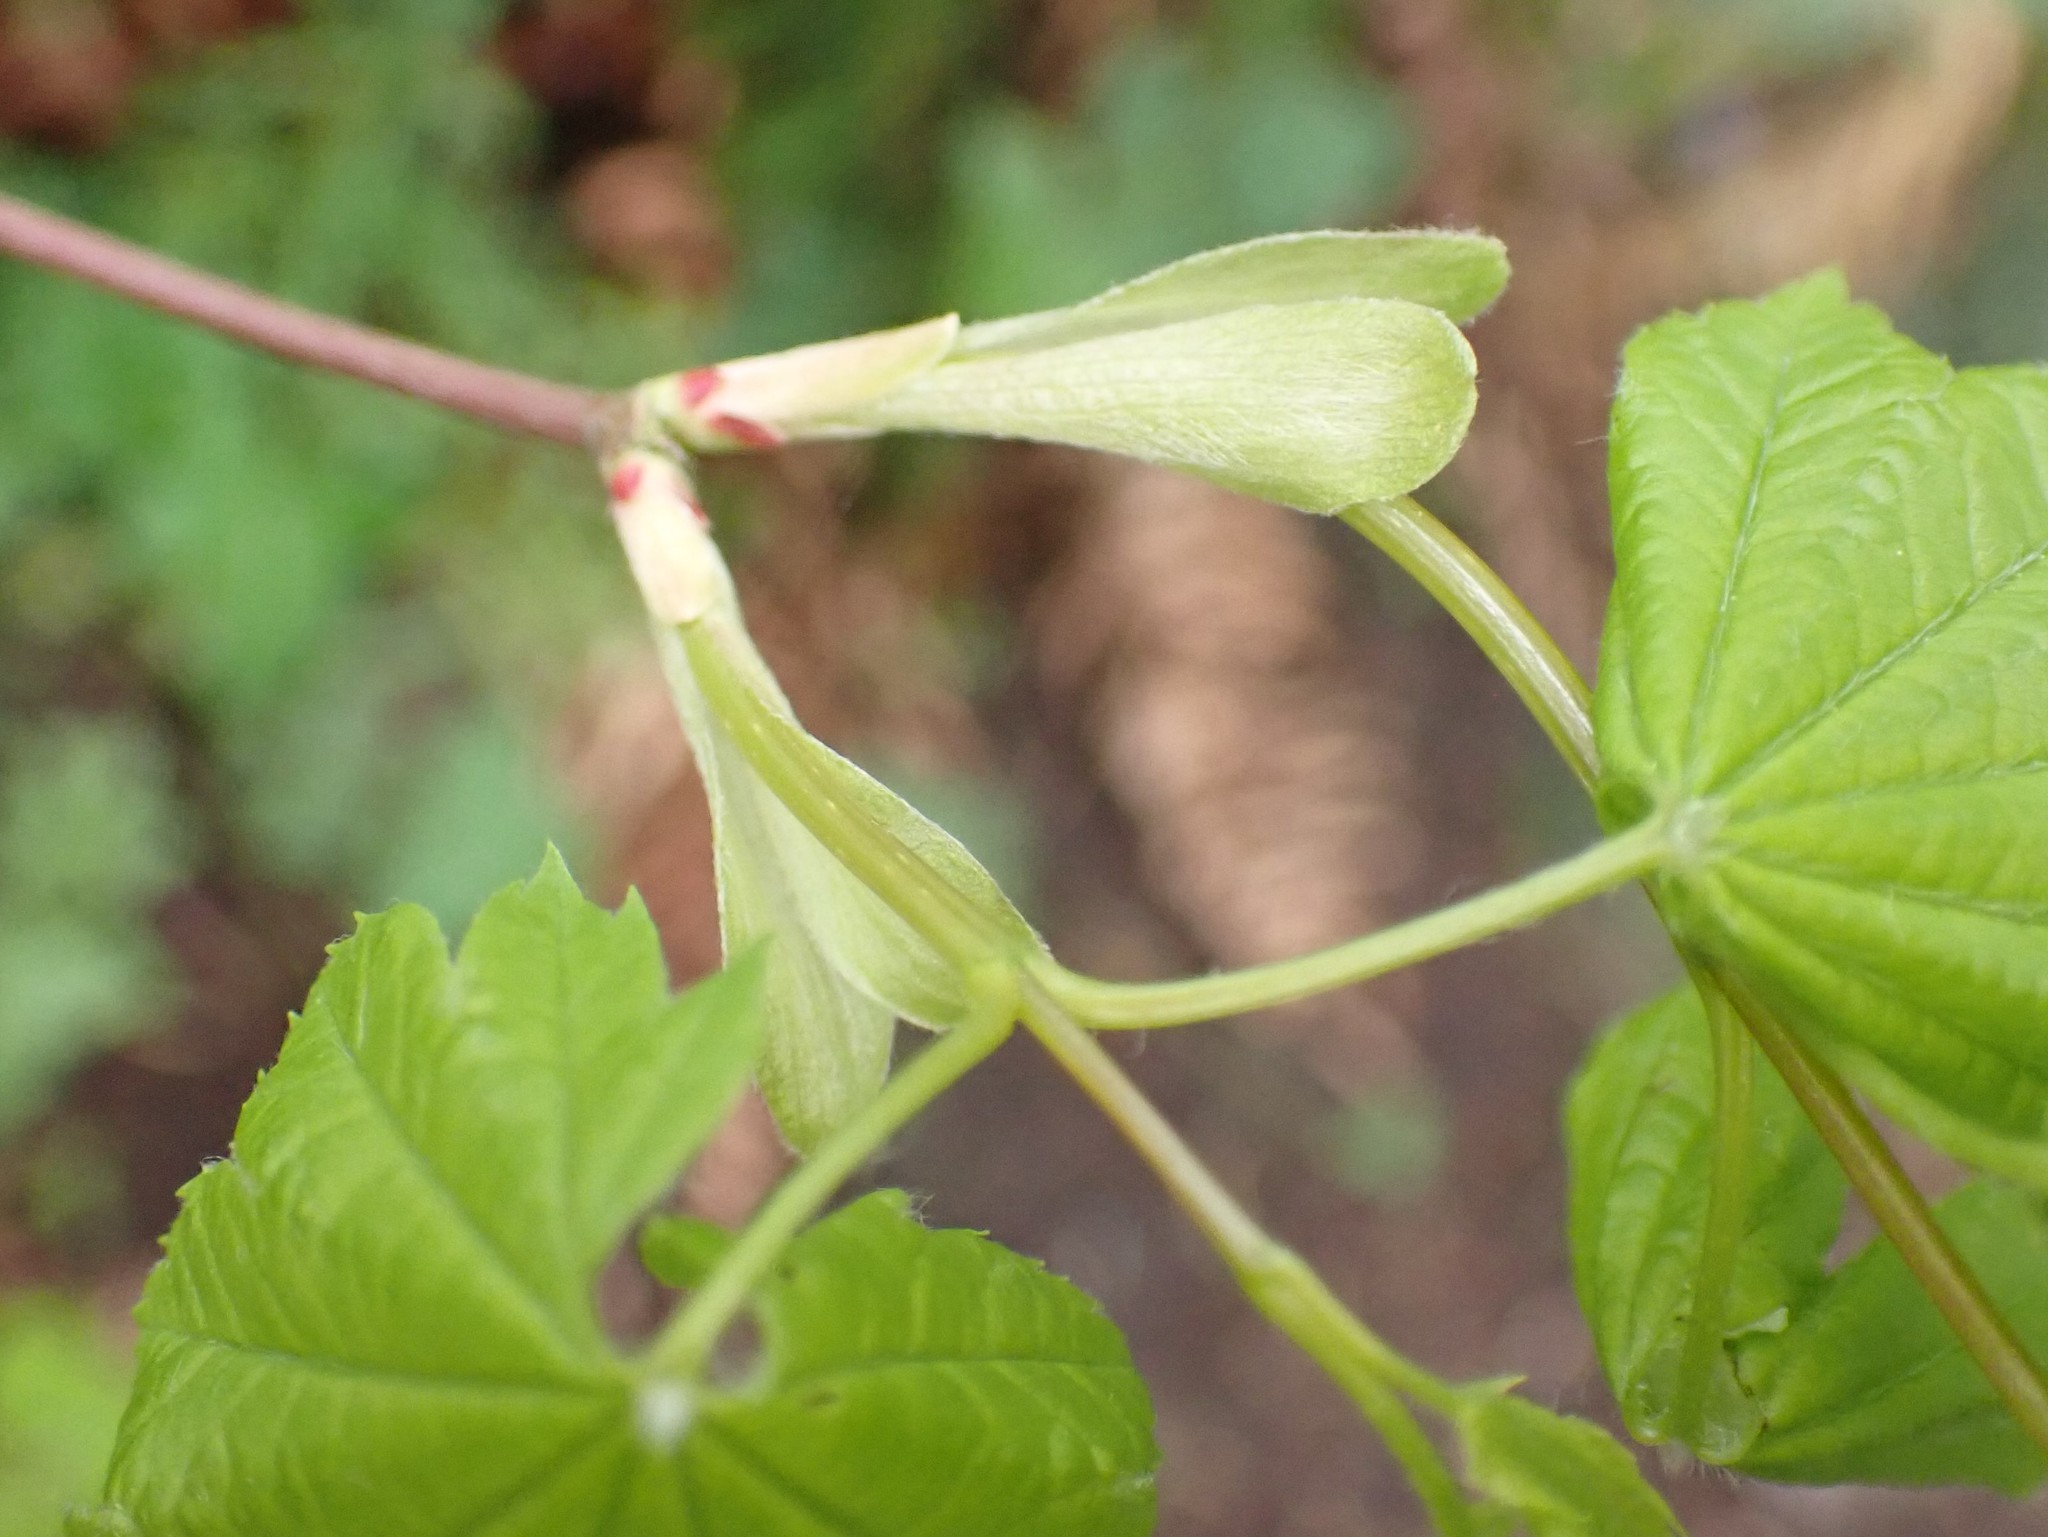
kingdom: Plantae
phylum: Tracheophyta
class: Magnoliopsida
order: Sapindales
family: Sapindaceae
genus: Acer
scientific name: Acer circinatum
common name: Vine maple
